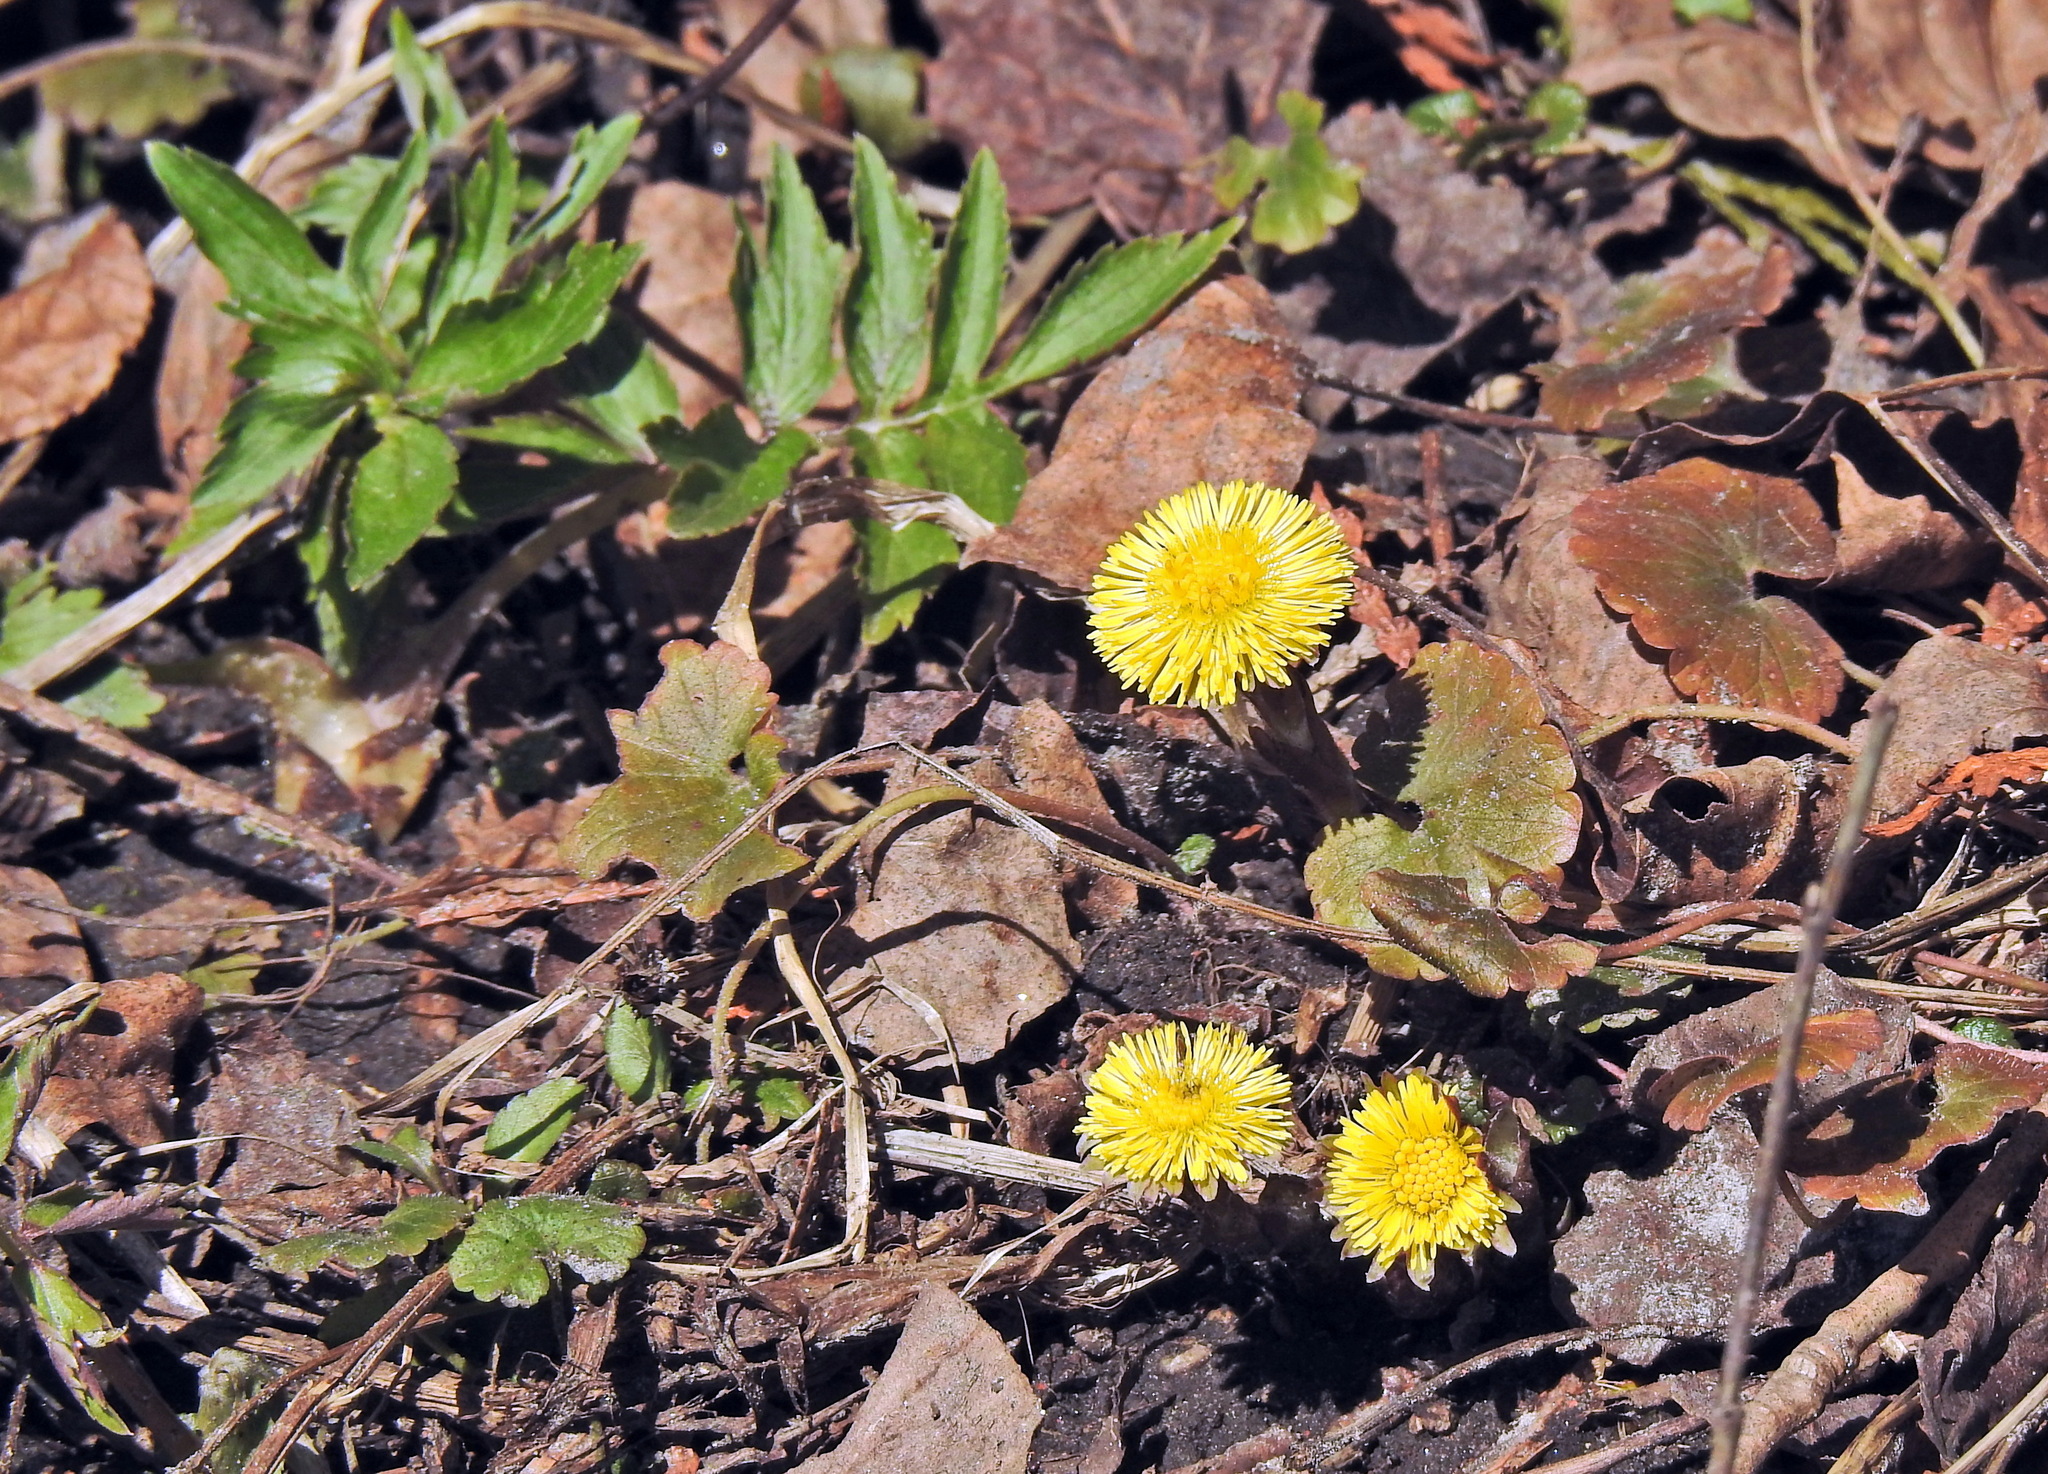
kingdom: Plantae
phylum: Tracheophyta
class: Magnoliopsida
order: Asterales
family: Asteraceae
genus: Tussilago
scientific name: Tussilago farfara
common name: Coltsfoot
